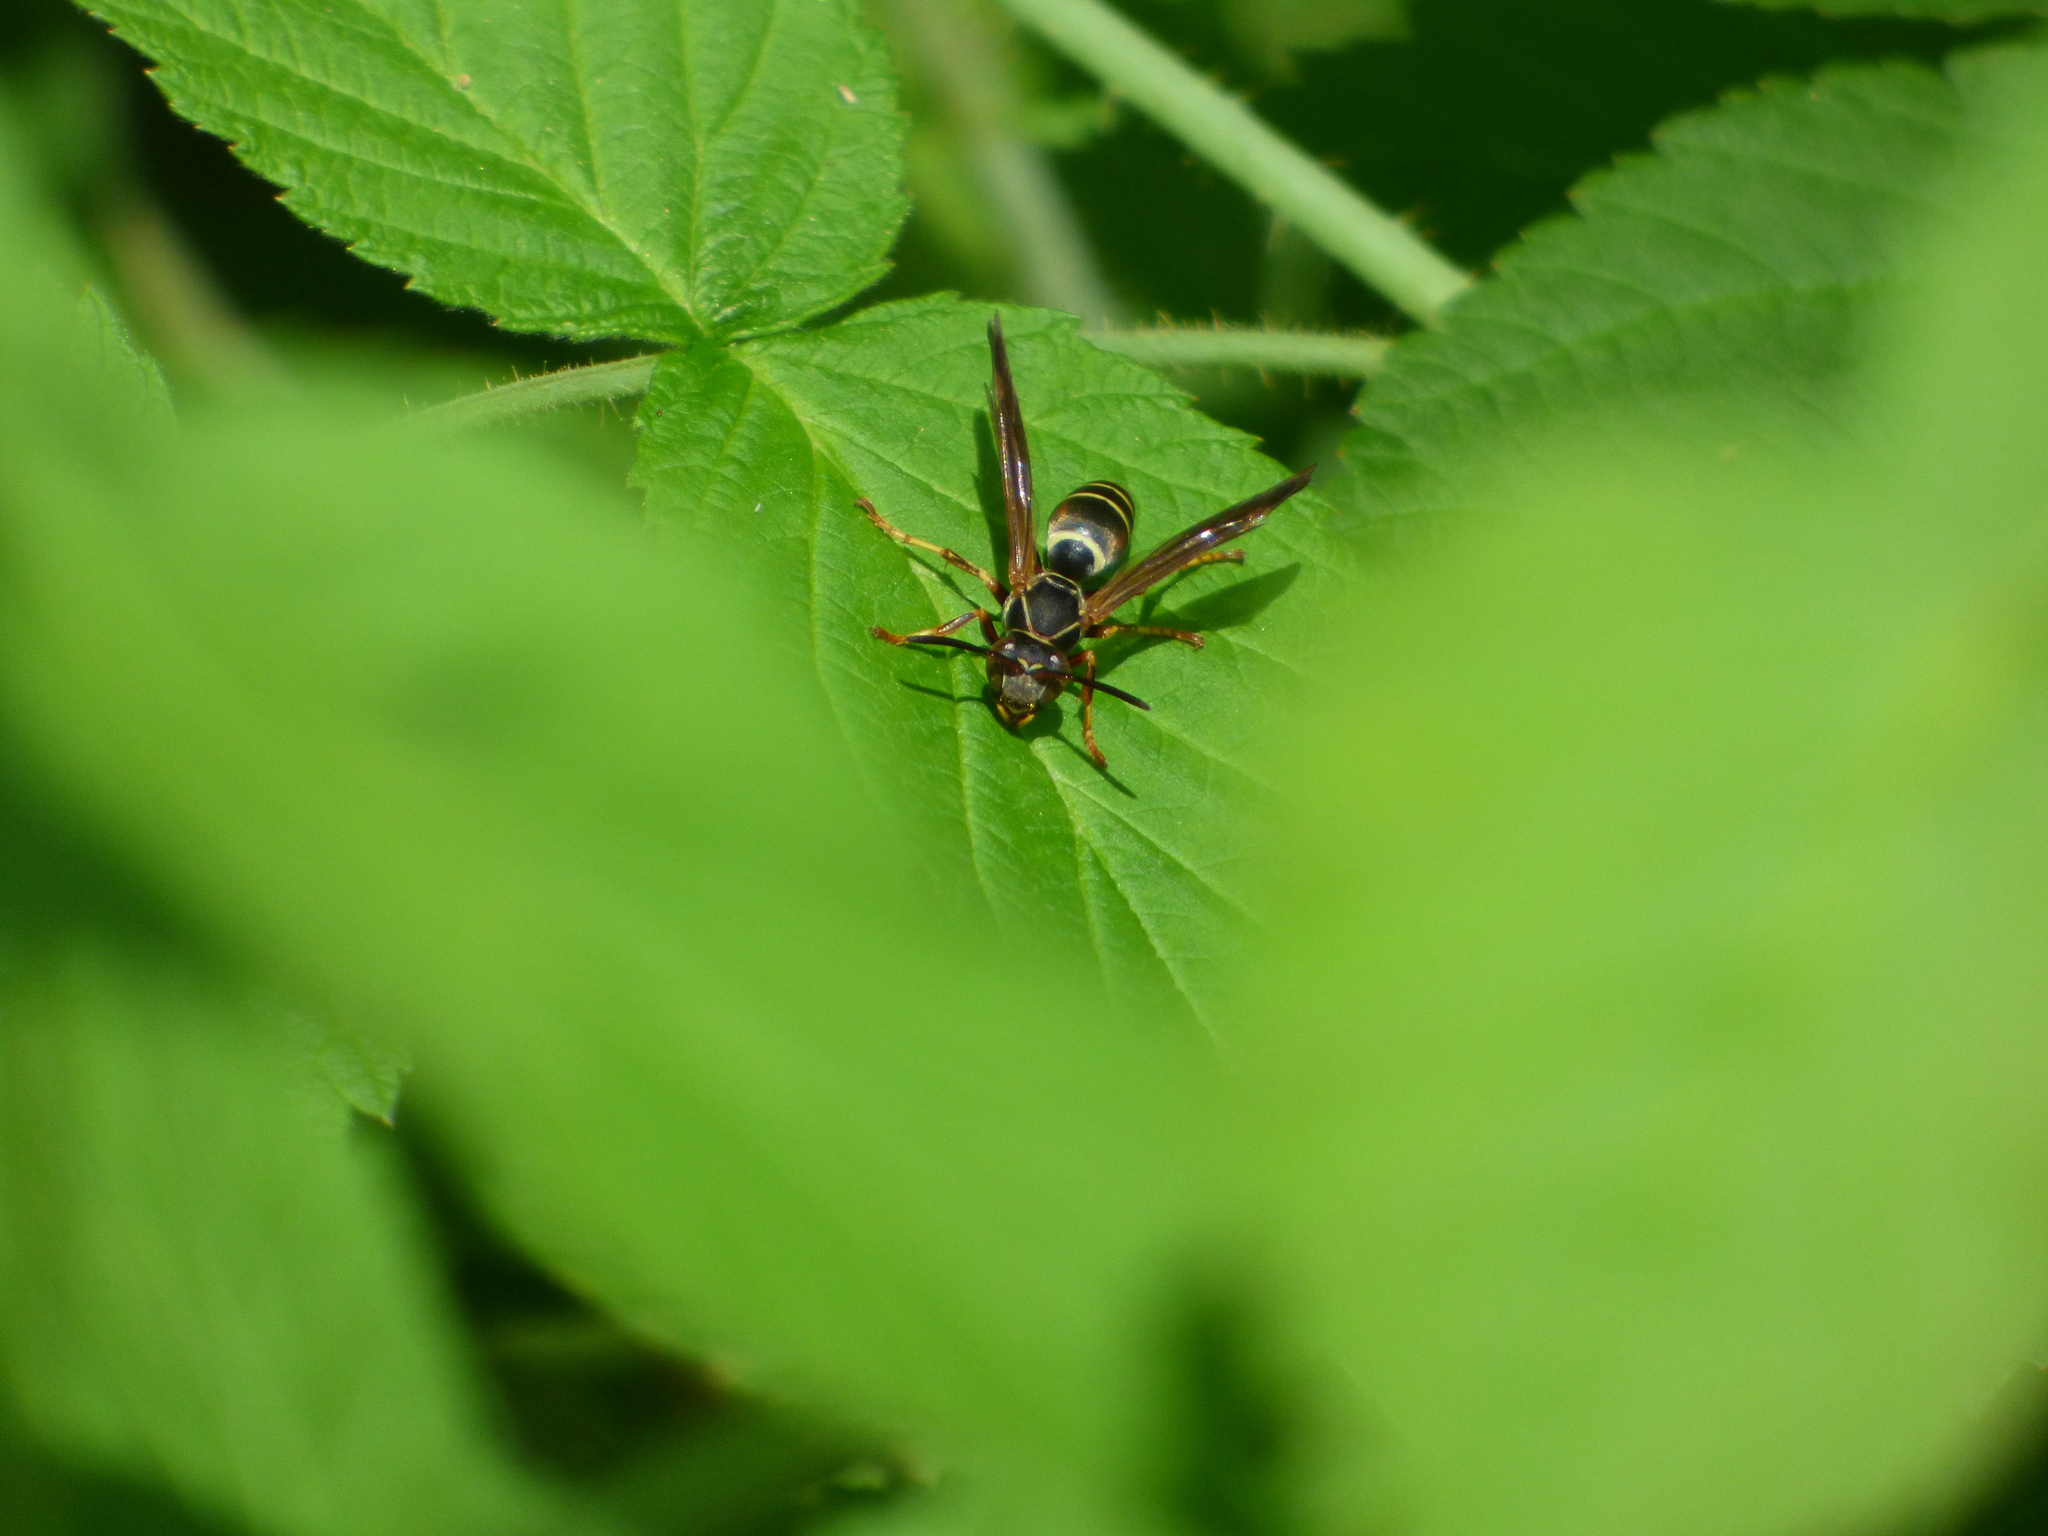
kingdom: Animalia
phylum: Arthropoda
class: Insecta
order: Hymenoptera
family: Eumenidae
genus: Polistes
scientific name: Polistes fuscatus
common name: Dark paper wasp
